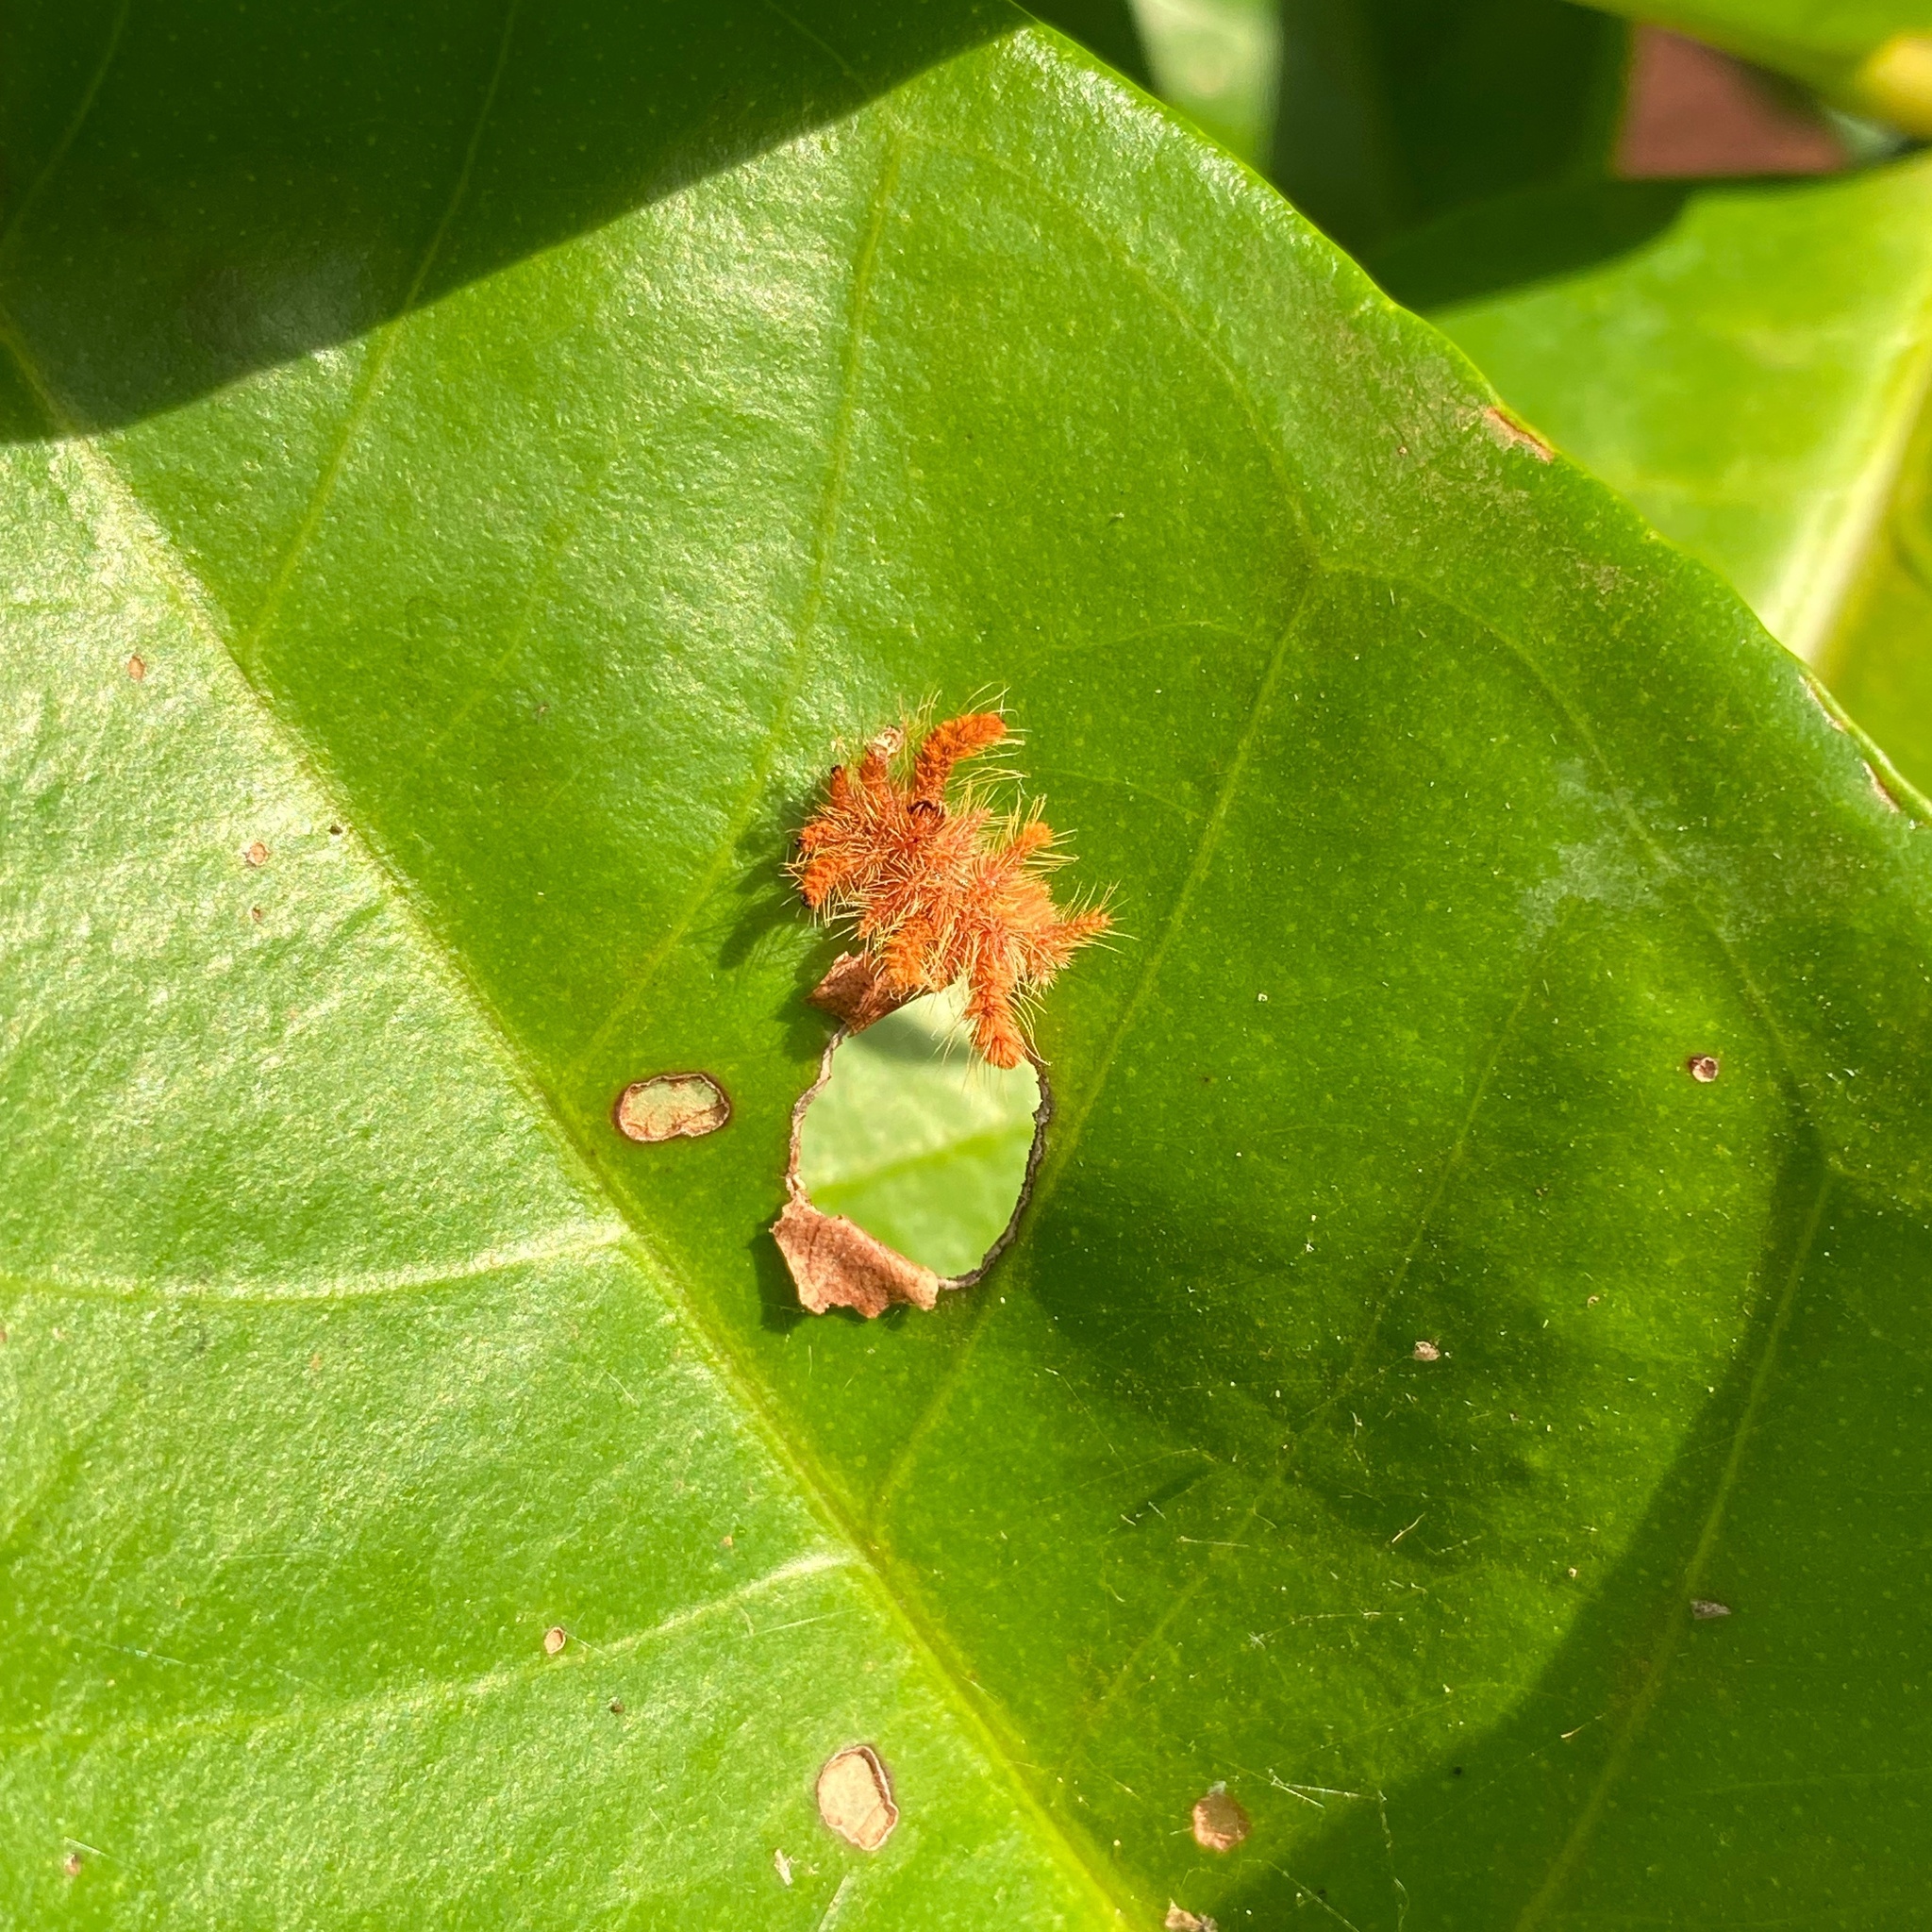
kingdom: Animalia
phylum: Arthropoda
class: Insecta
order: Lepidoptera
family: Limacodidae
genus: Phobetron
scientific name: Phobetron hipparchia
